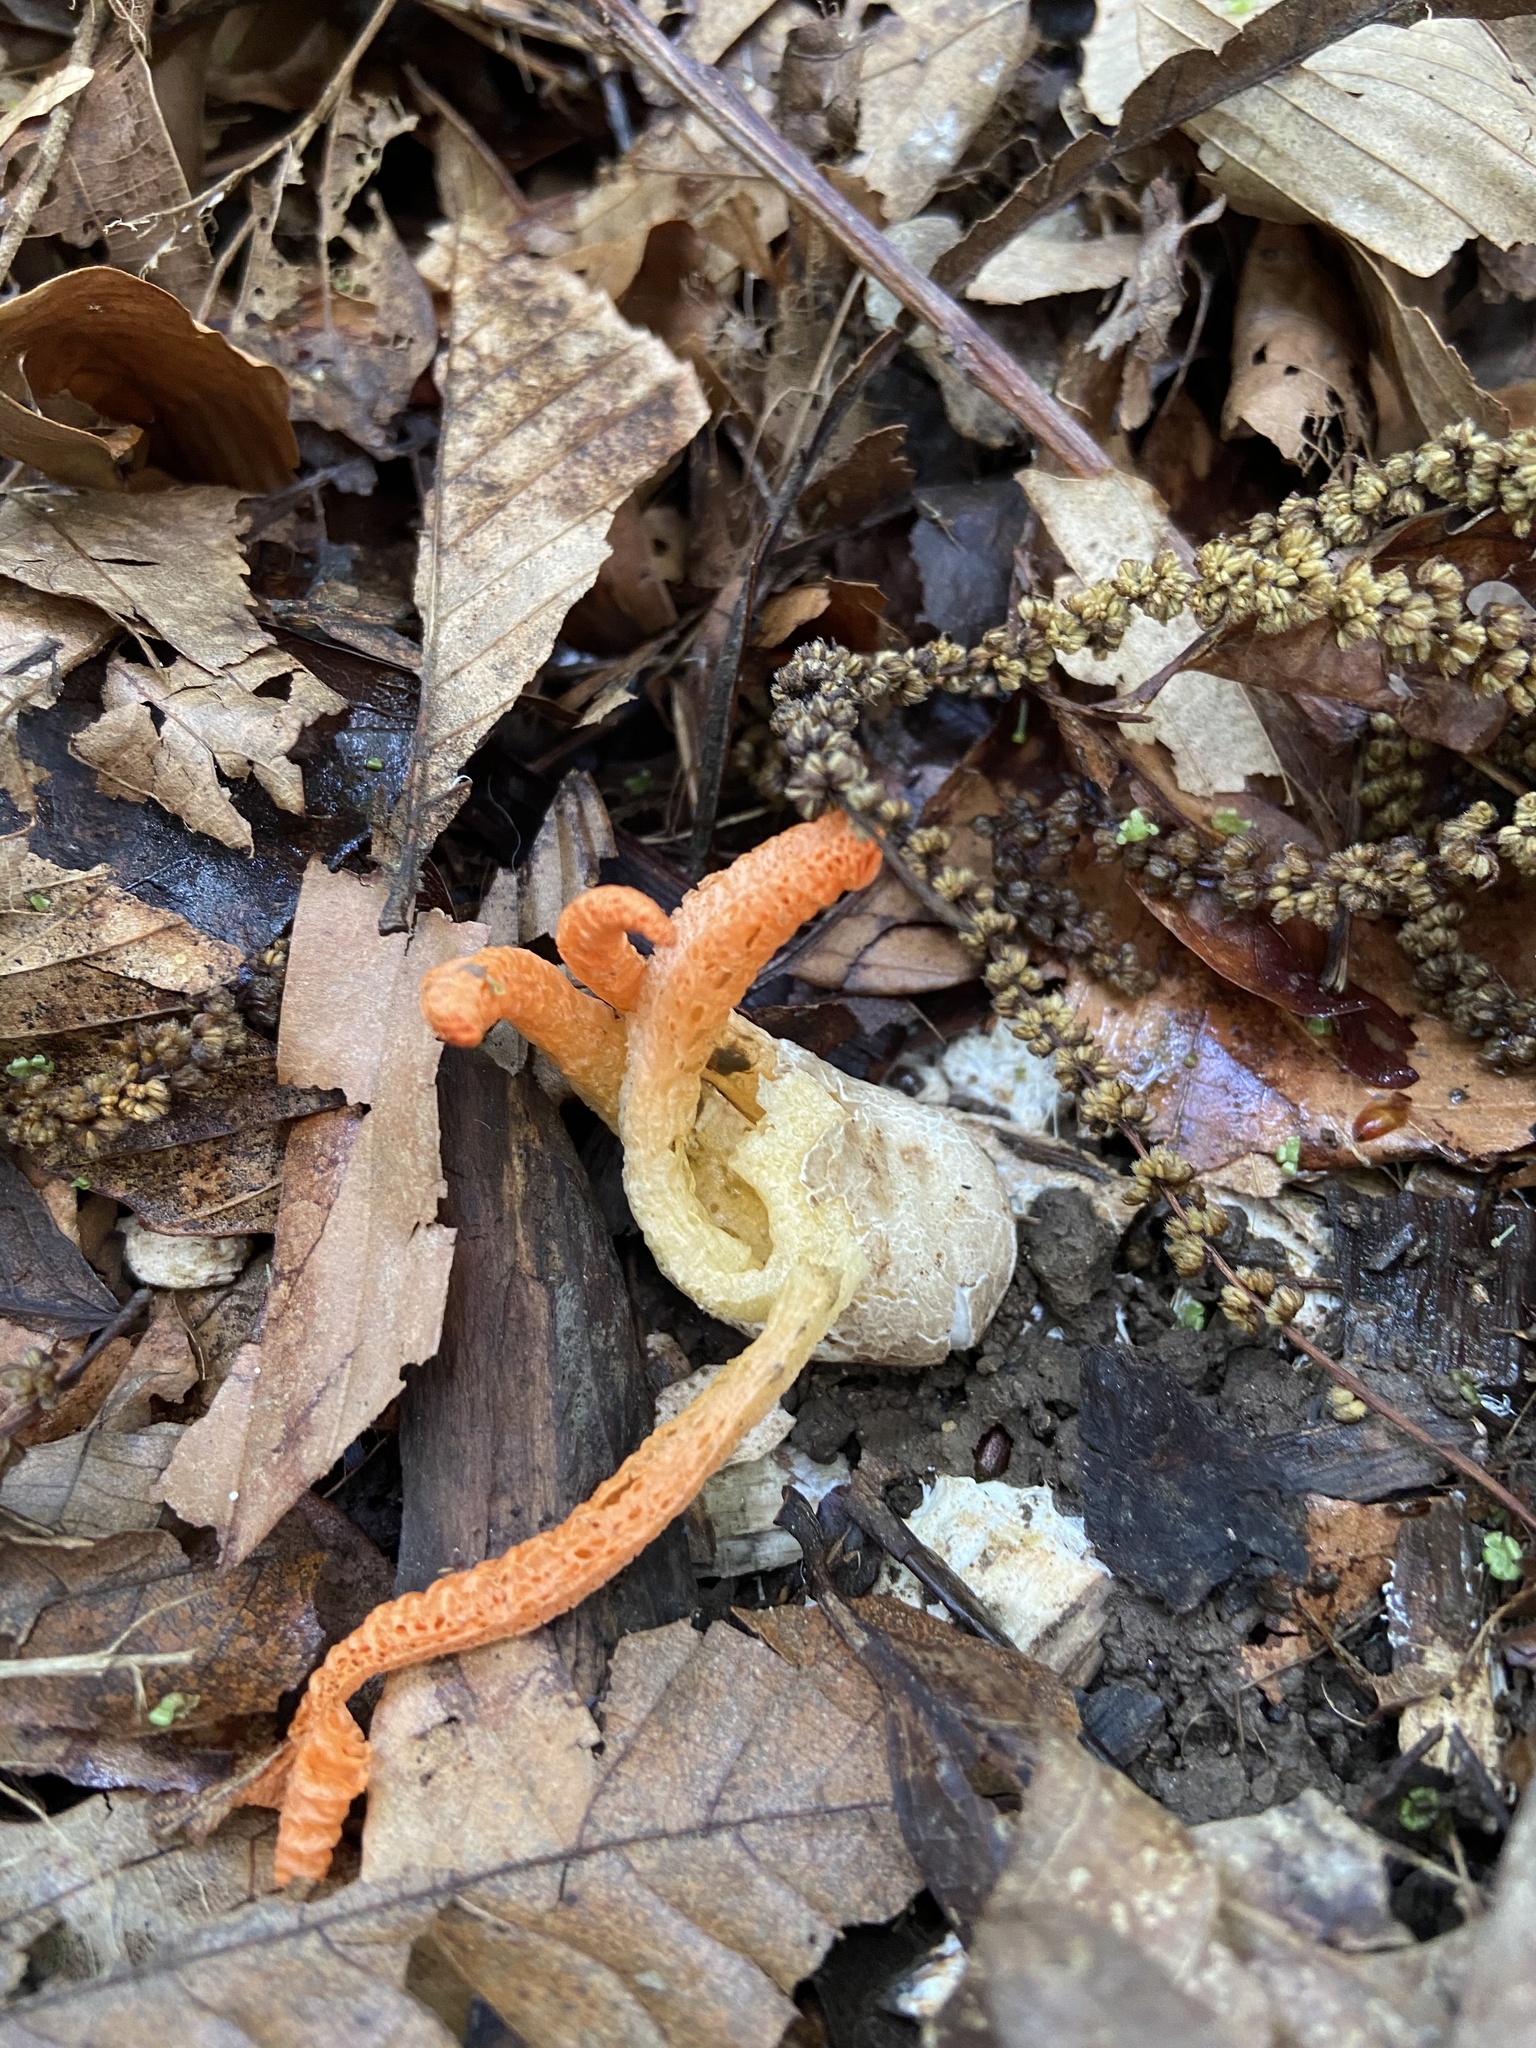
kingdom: Fungi
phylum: Basidiomycota
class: Agaricomycetes
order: Phallales
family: Phallaceae
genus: Pseudocolus
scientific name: Pseudocolus fusiformis
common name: Stinky squid
